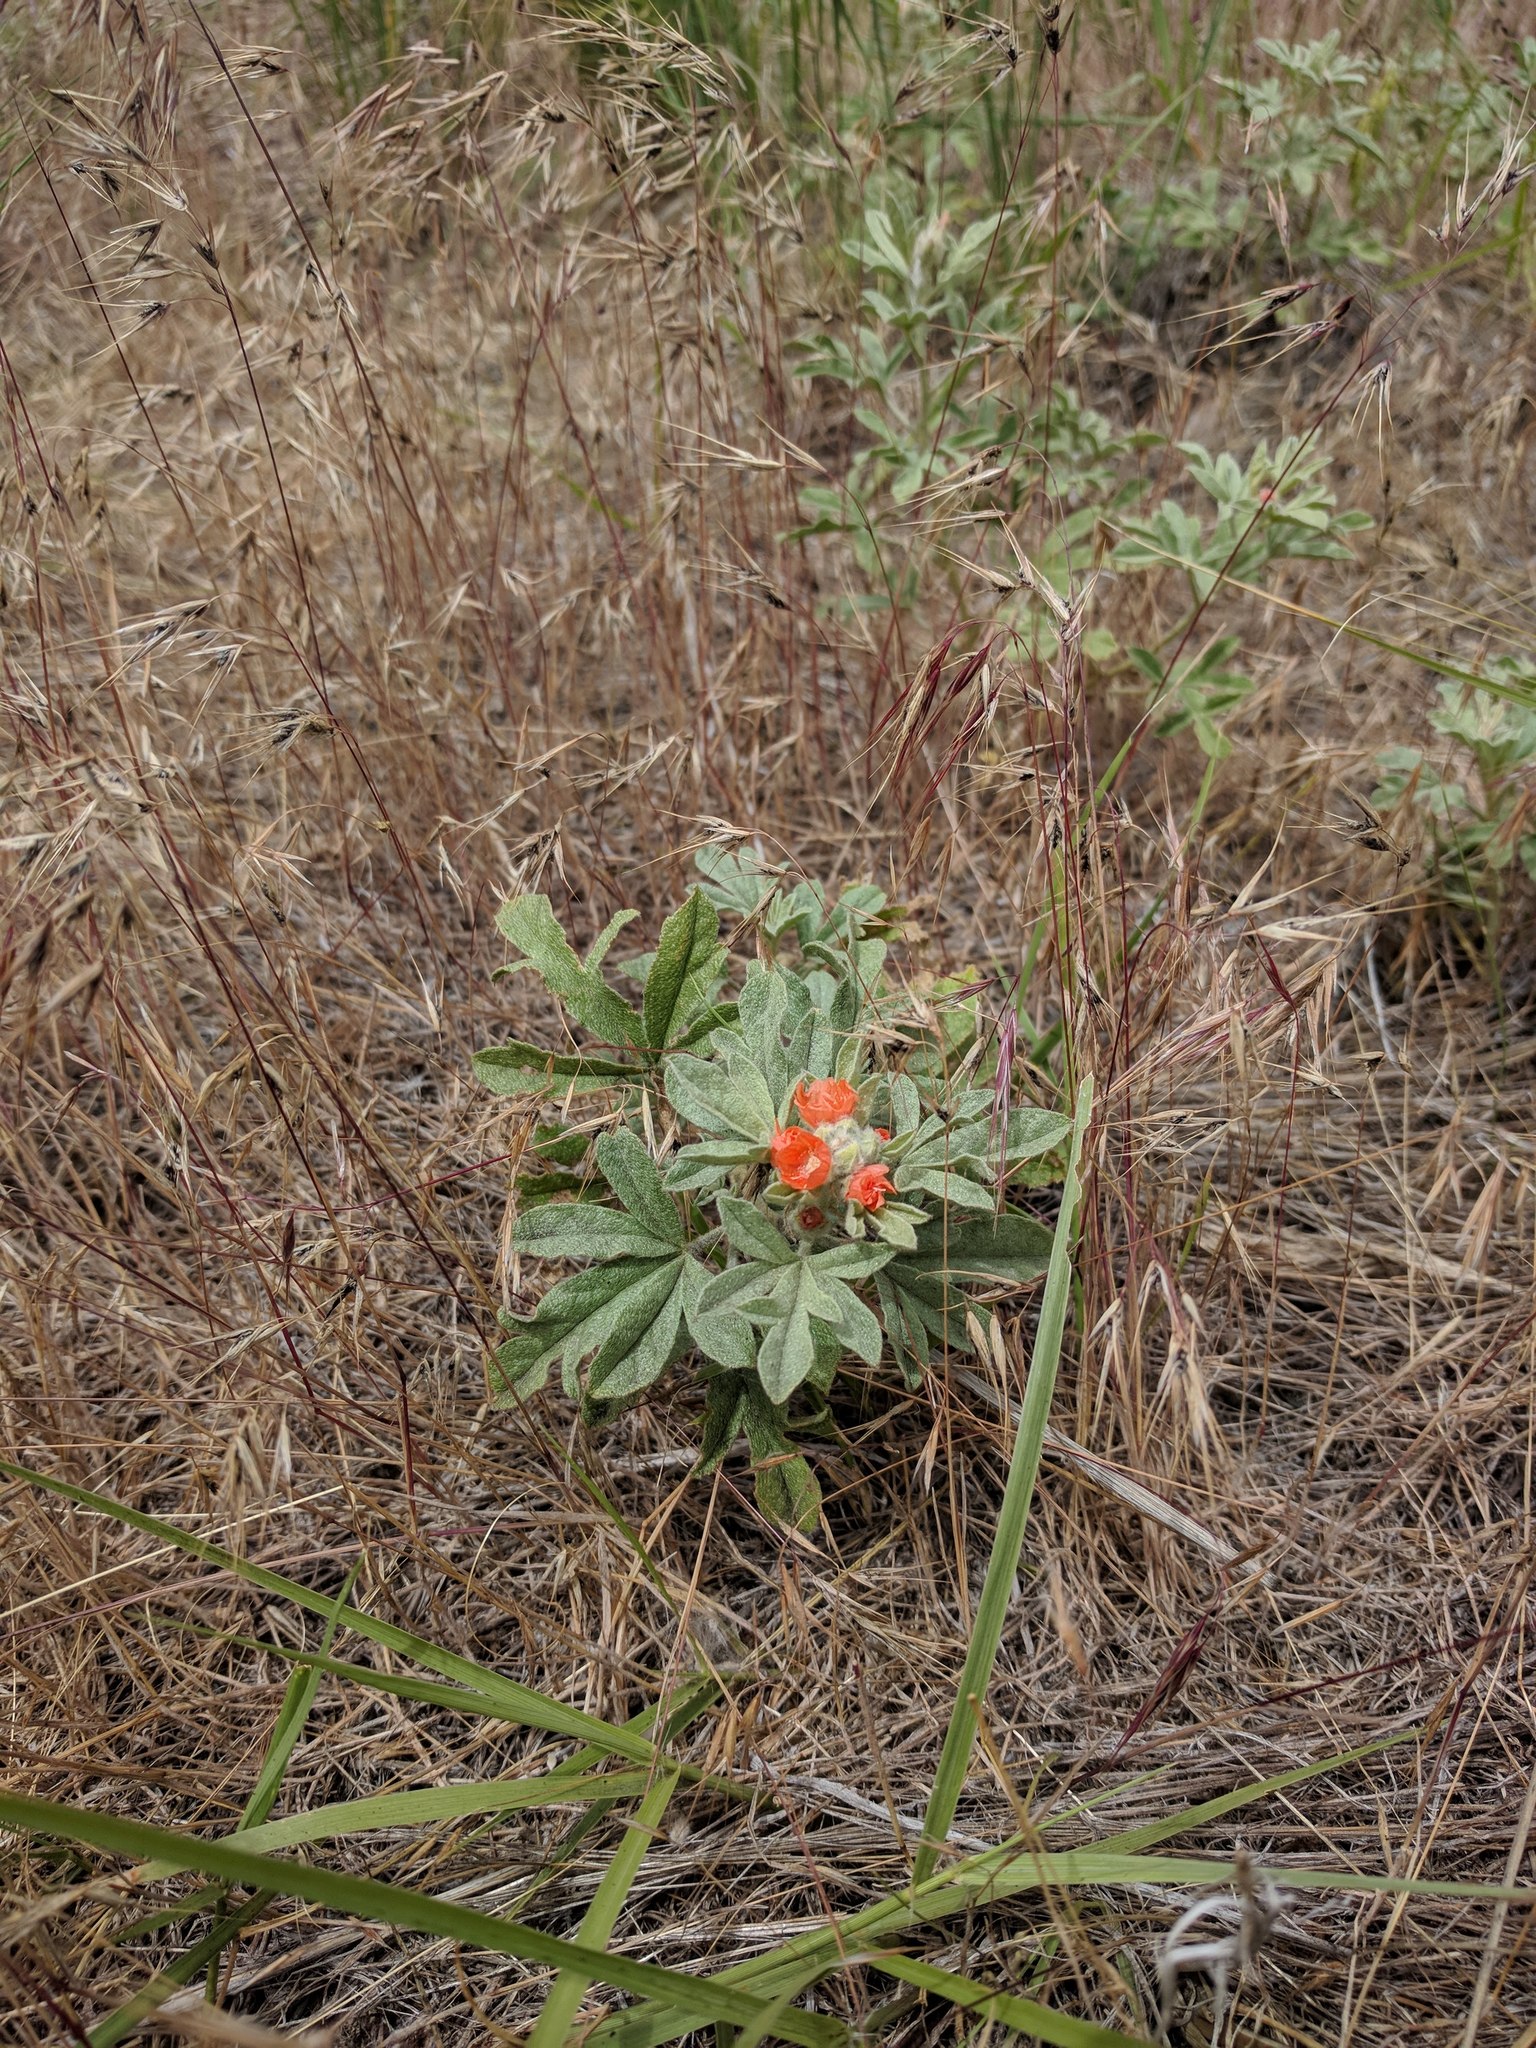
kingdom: Plantae
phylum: Tracheophyta
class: Magnoliopsida
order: Malvales
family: Malvaceae
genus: Sphaeralcea
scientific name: Sphaeralcea coccinea
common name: Moss-rose
